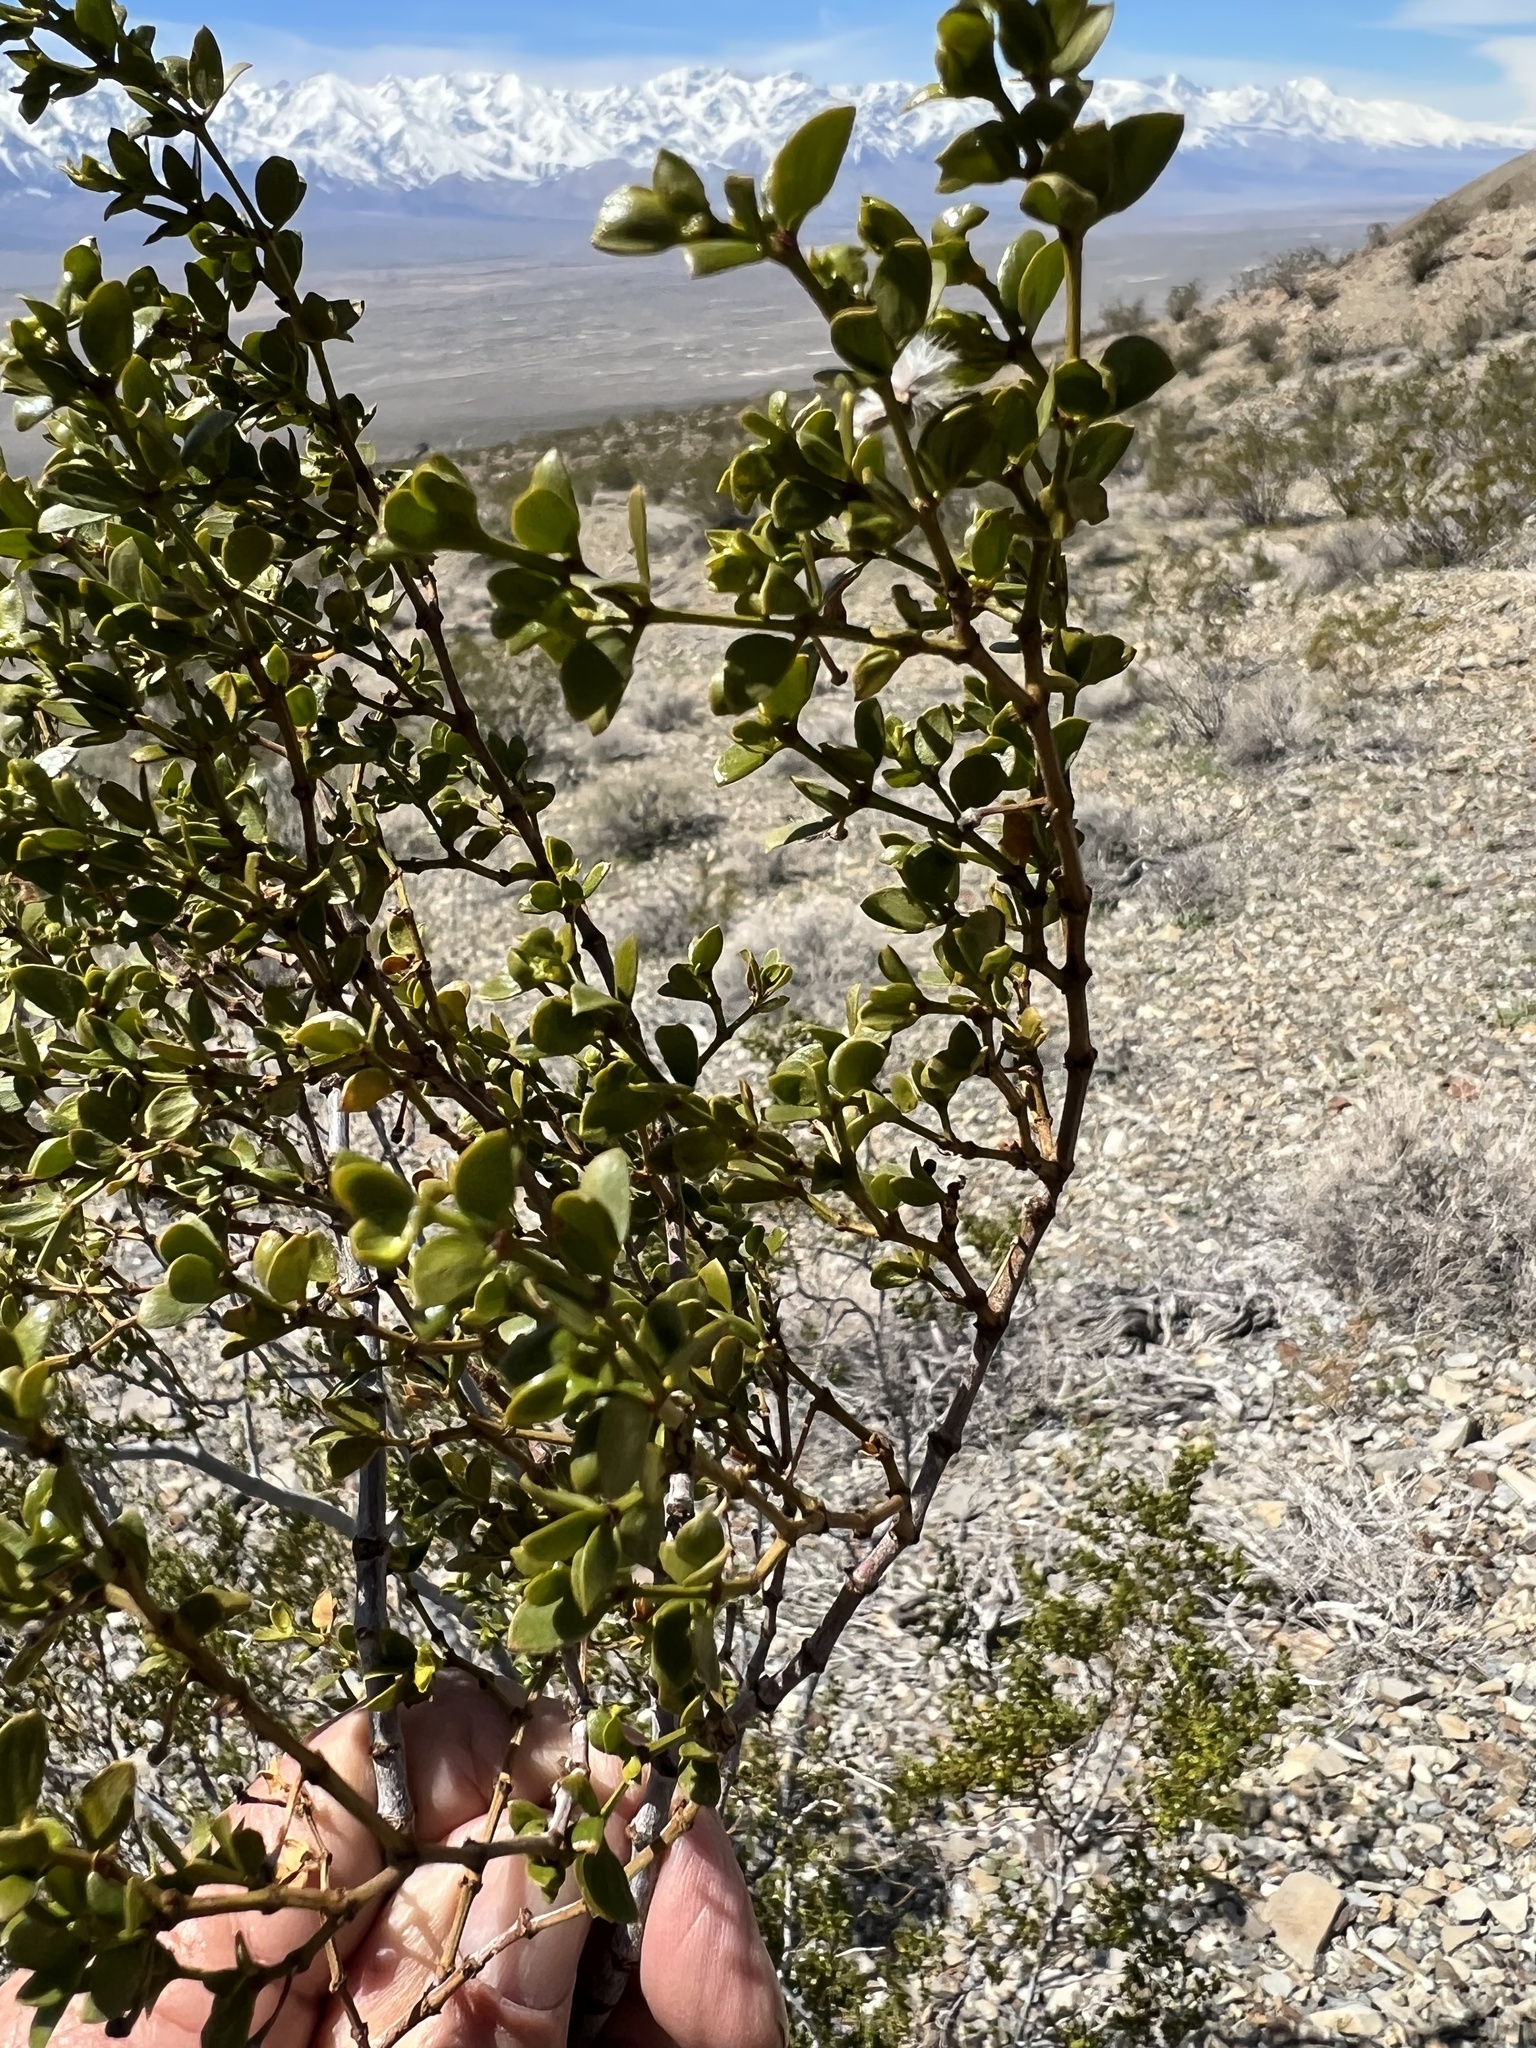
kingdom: Plantae
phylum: Tracheophyta
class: Magnoliopsida
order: Zygophyllales
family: Zygophyllaceae
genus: Larrea
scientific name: Larrea tridentata
